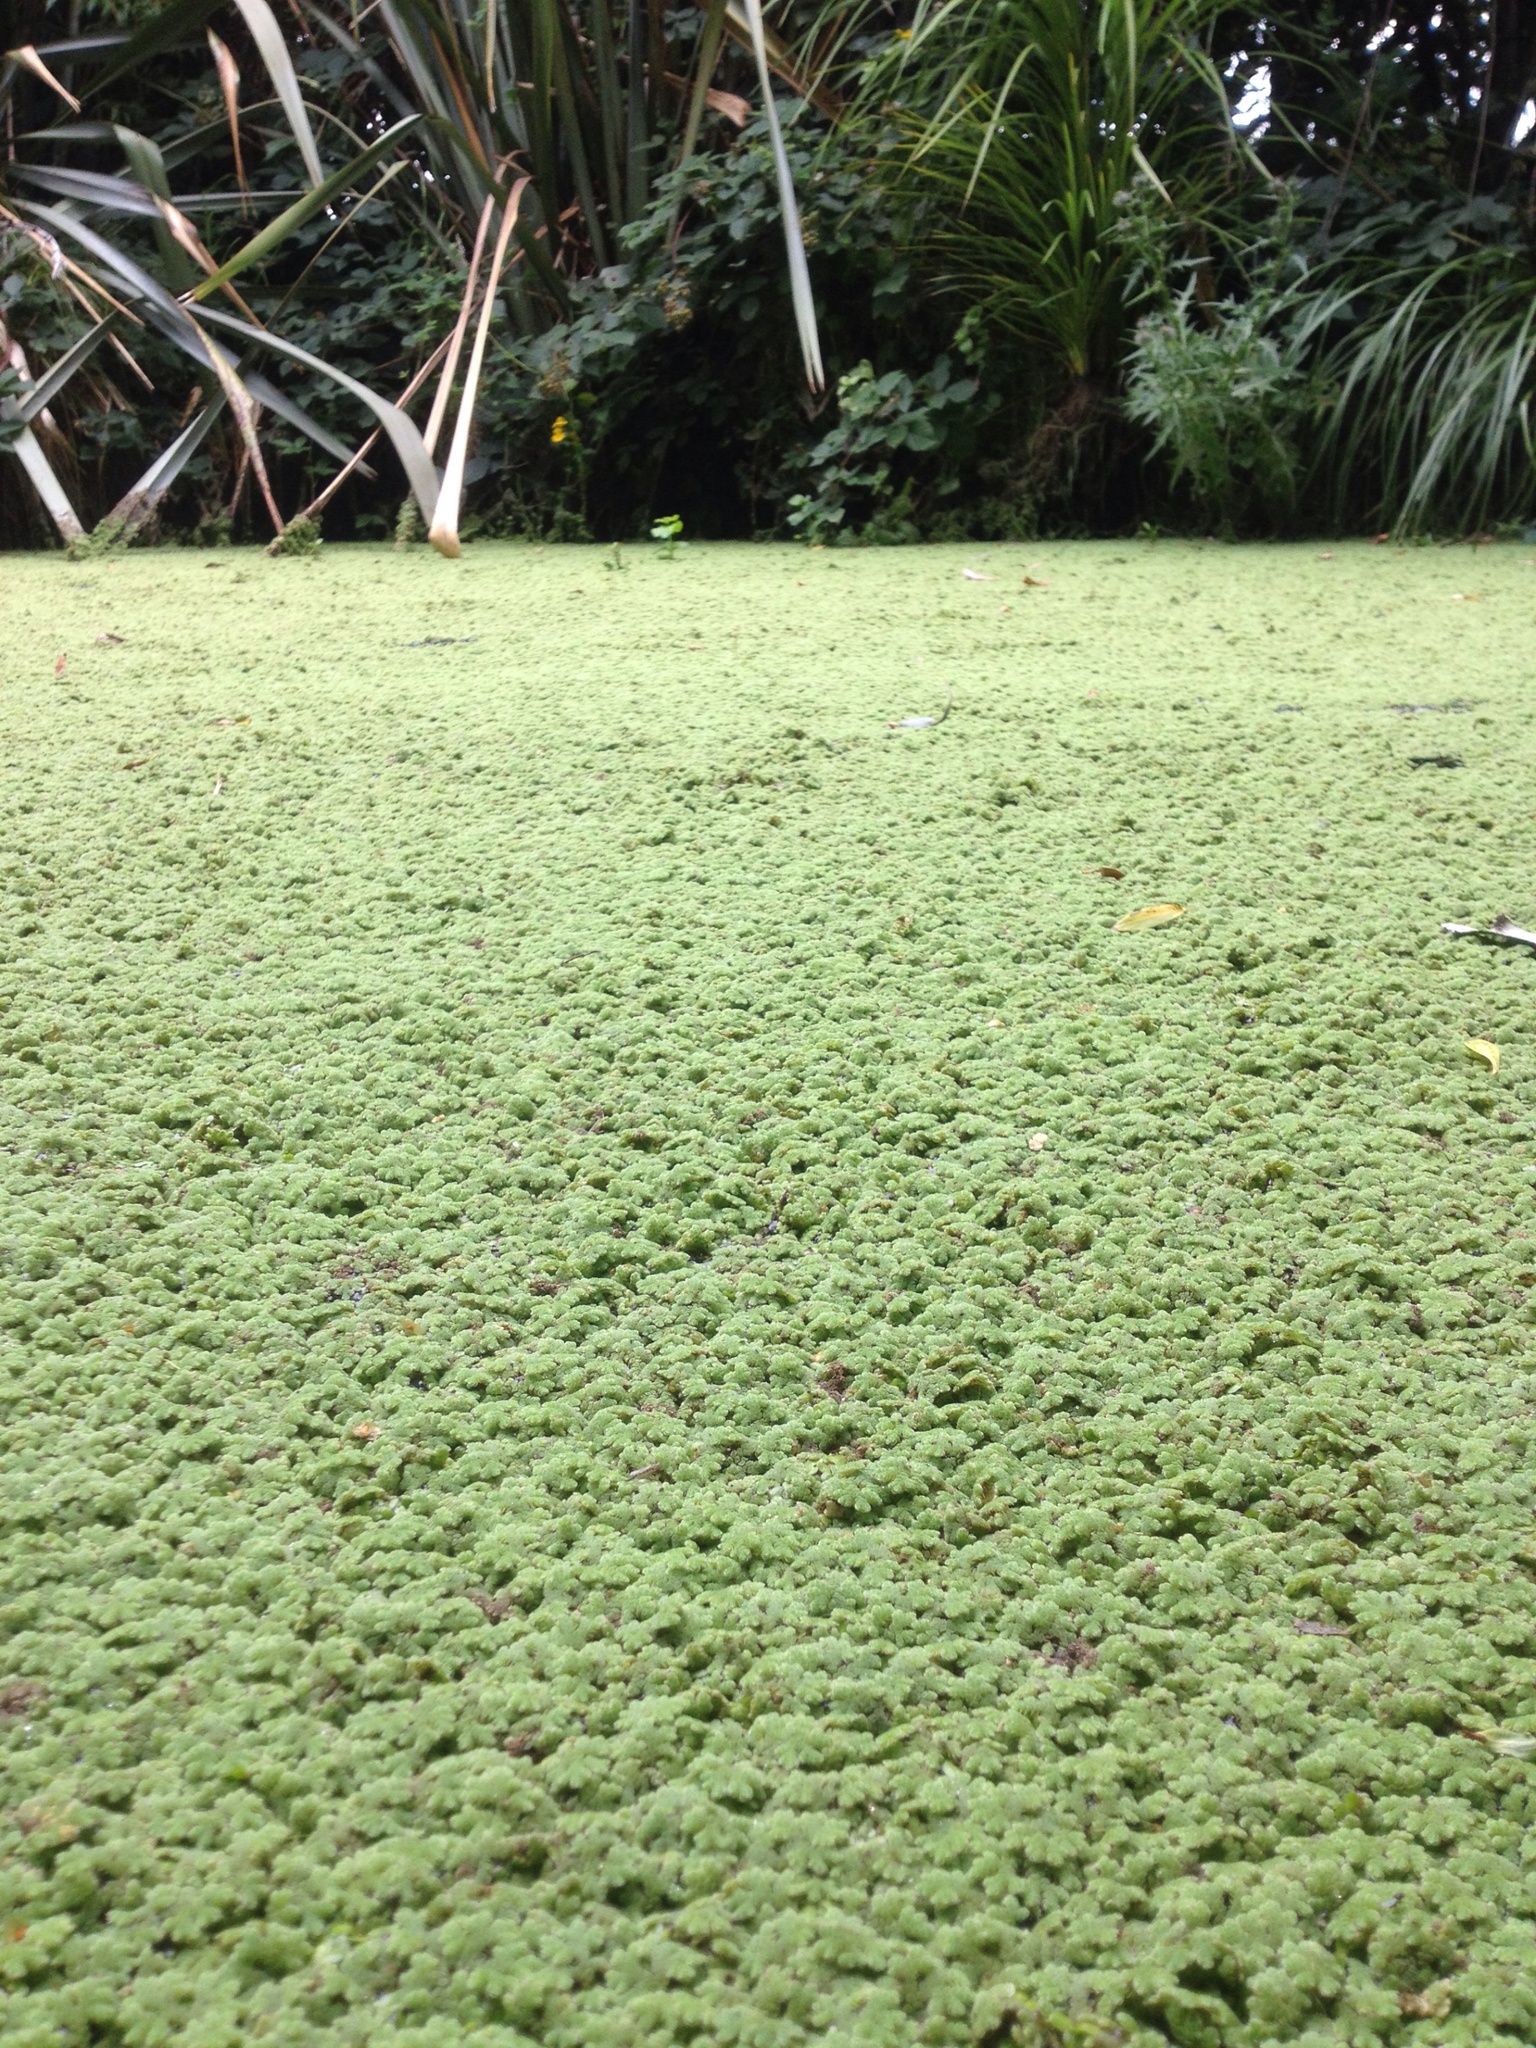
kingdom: Plantae
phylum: Tracheophyta
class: Polypodiopsida
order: Salviniales
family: Salviniaceae
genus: Azolla
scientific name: Azolla rubra
